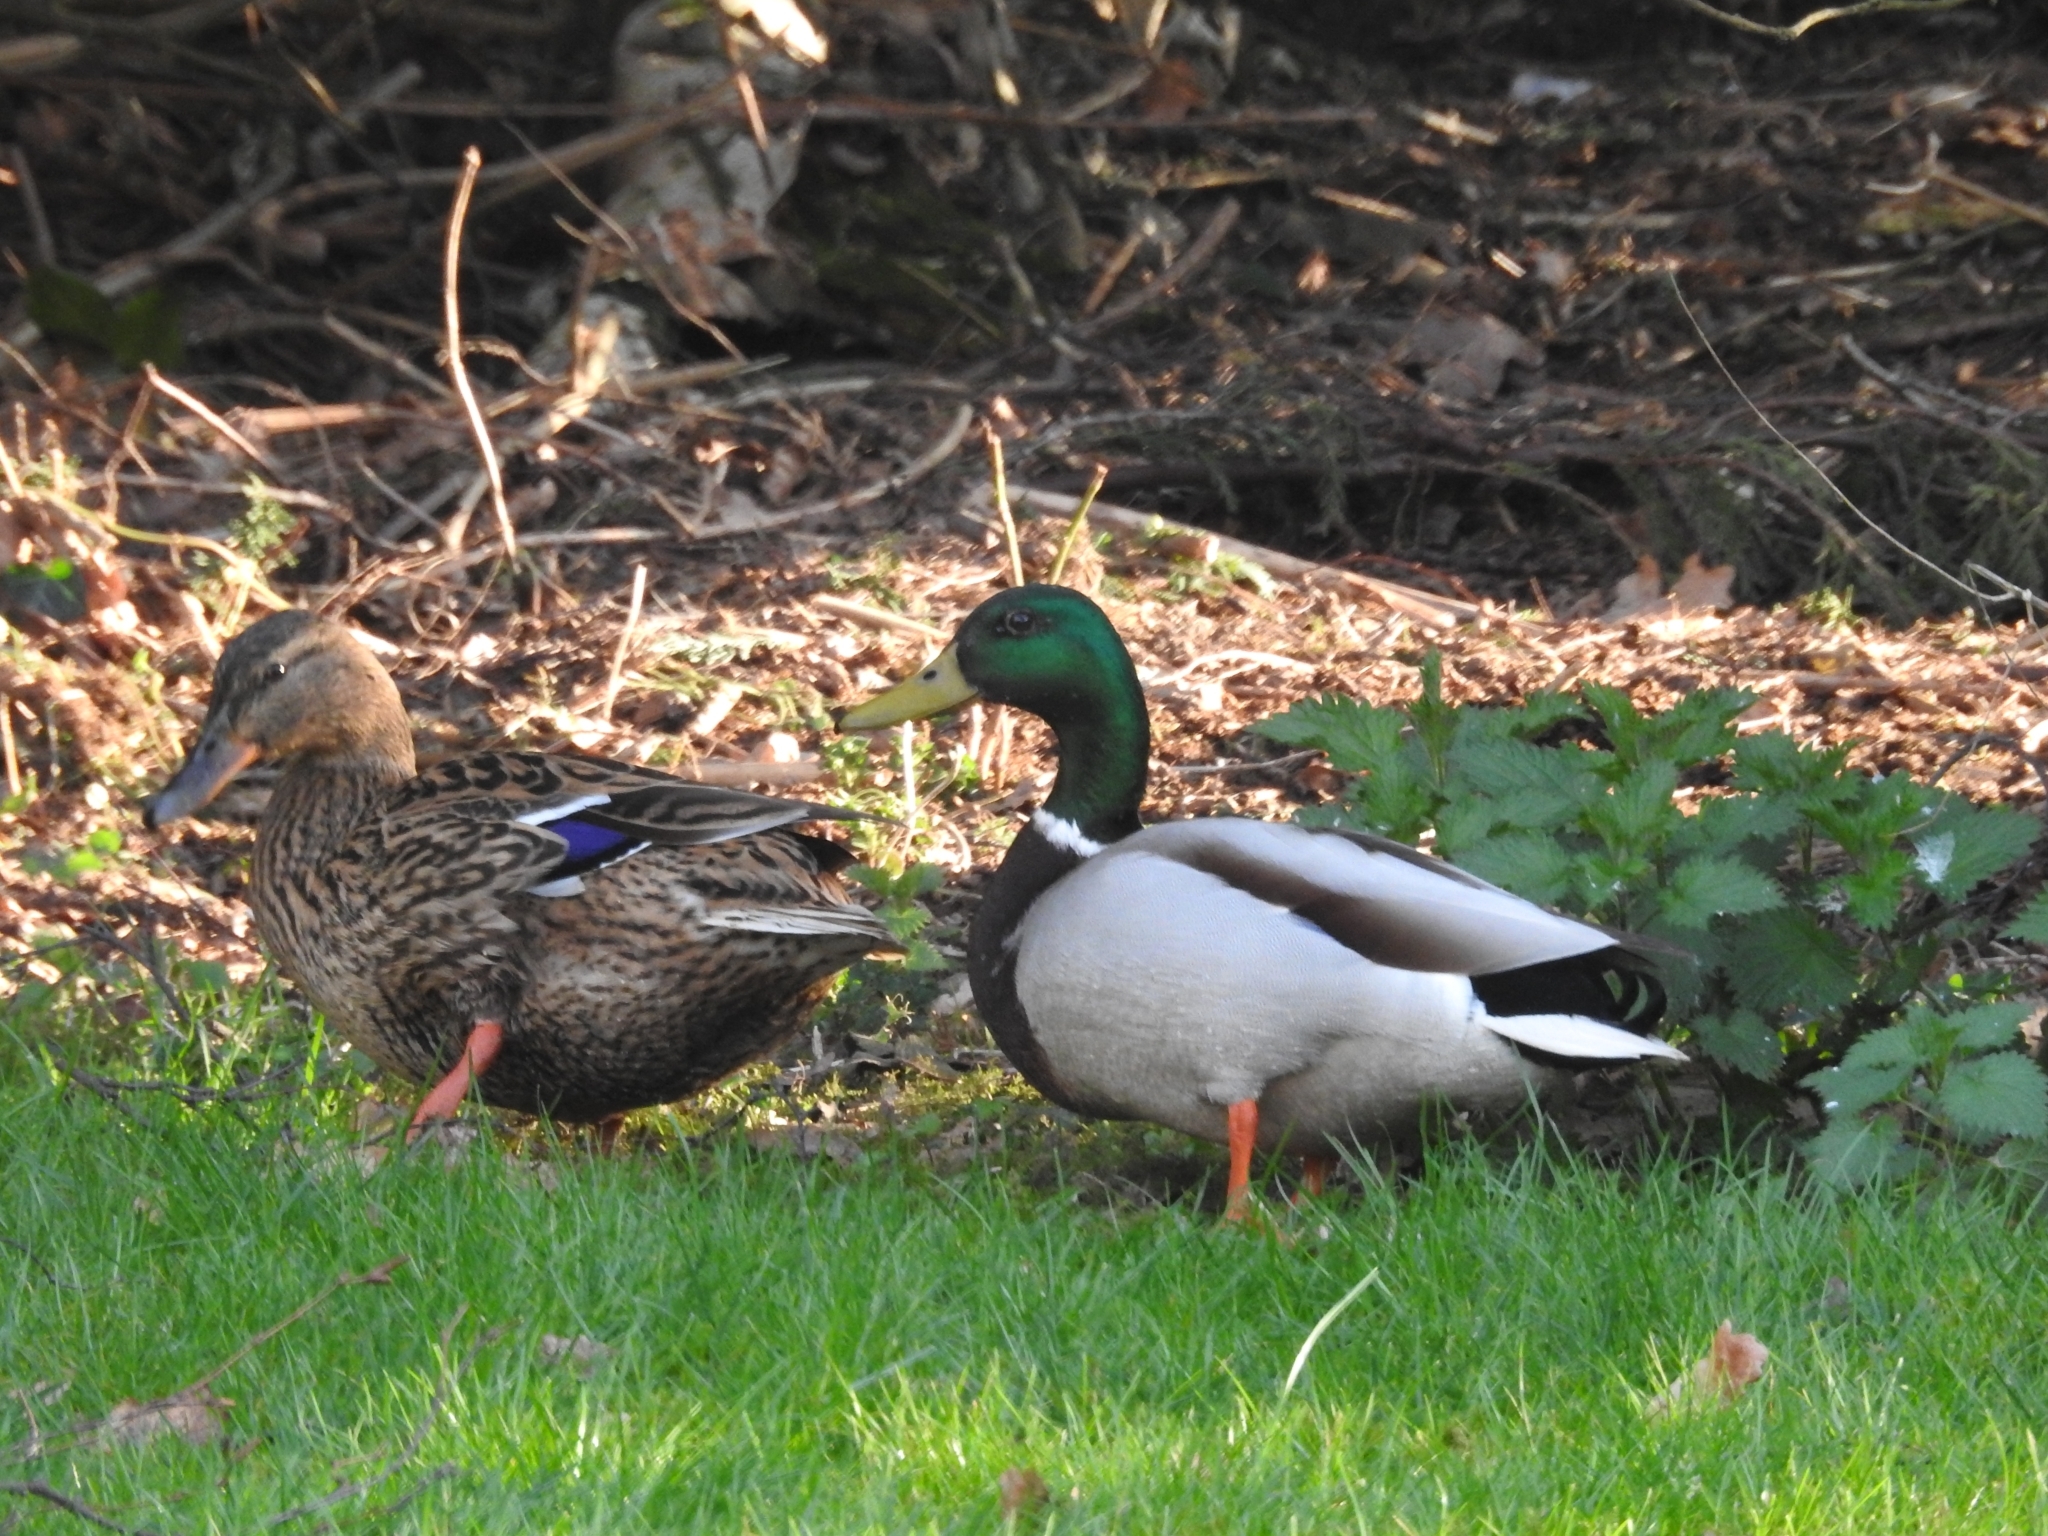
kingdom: Animalia
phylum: Chordata
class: Aves
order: Anseriformes
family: Anatidae
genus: Anas
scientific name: Anas platyrhynchos
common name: Mallard
